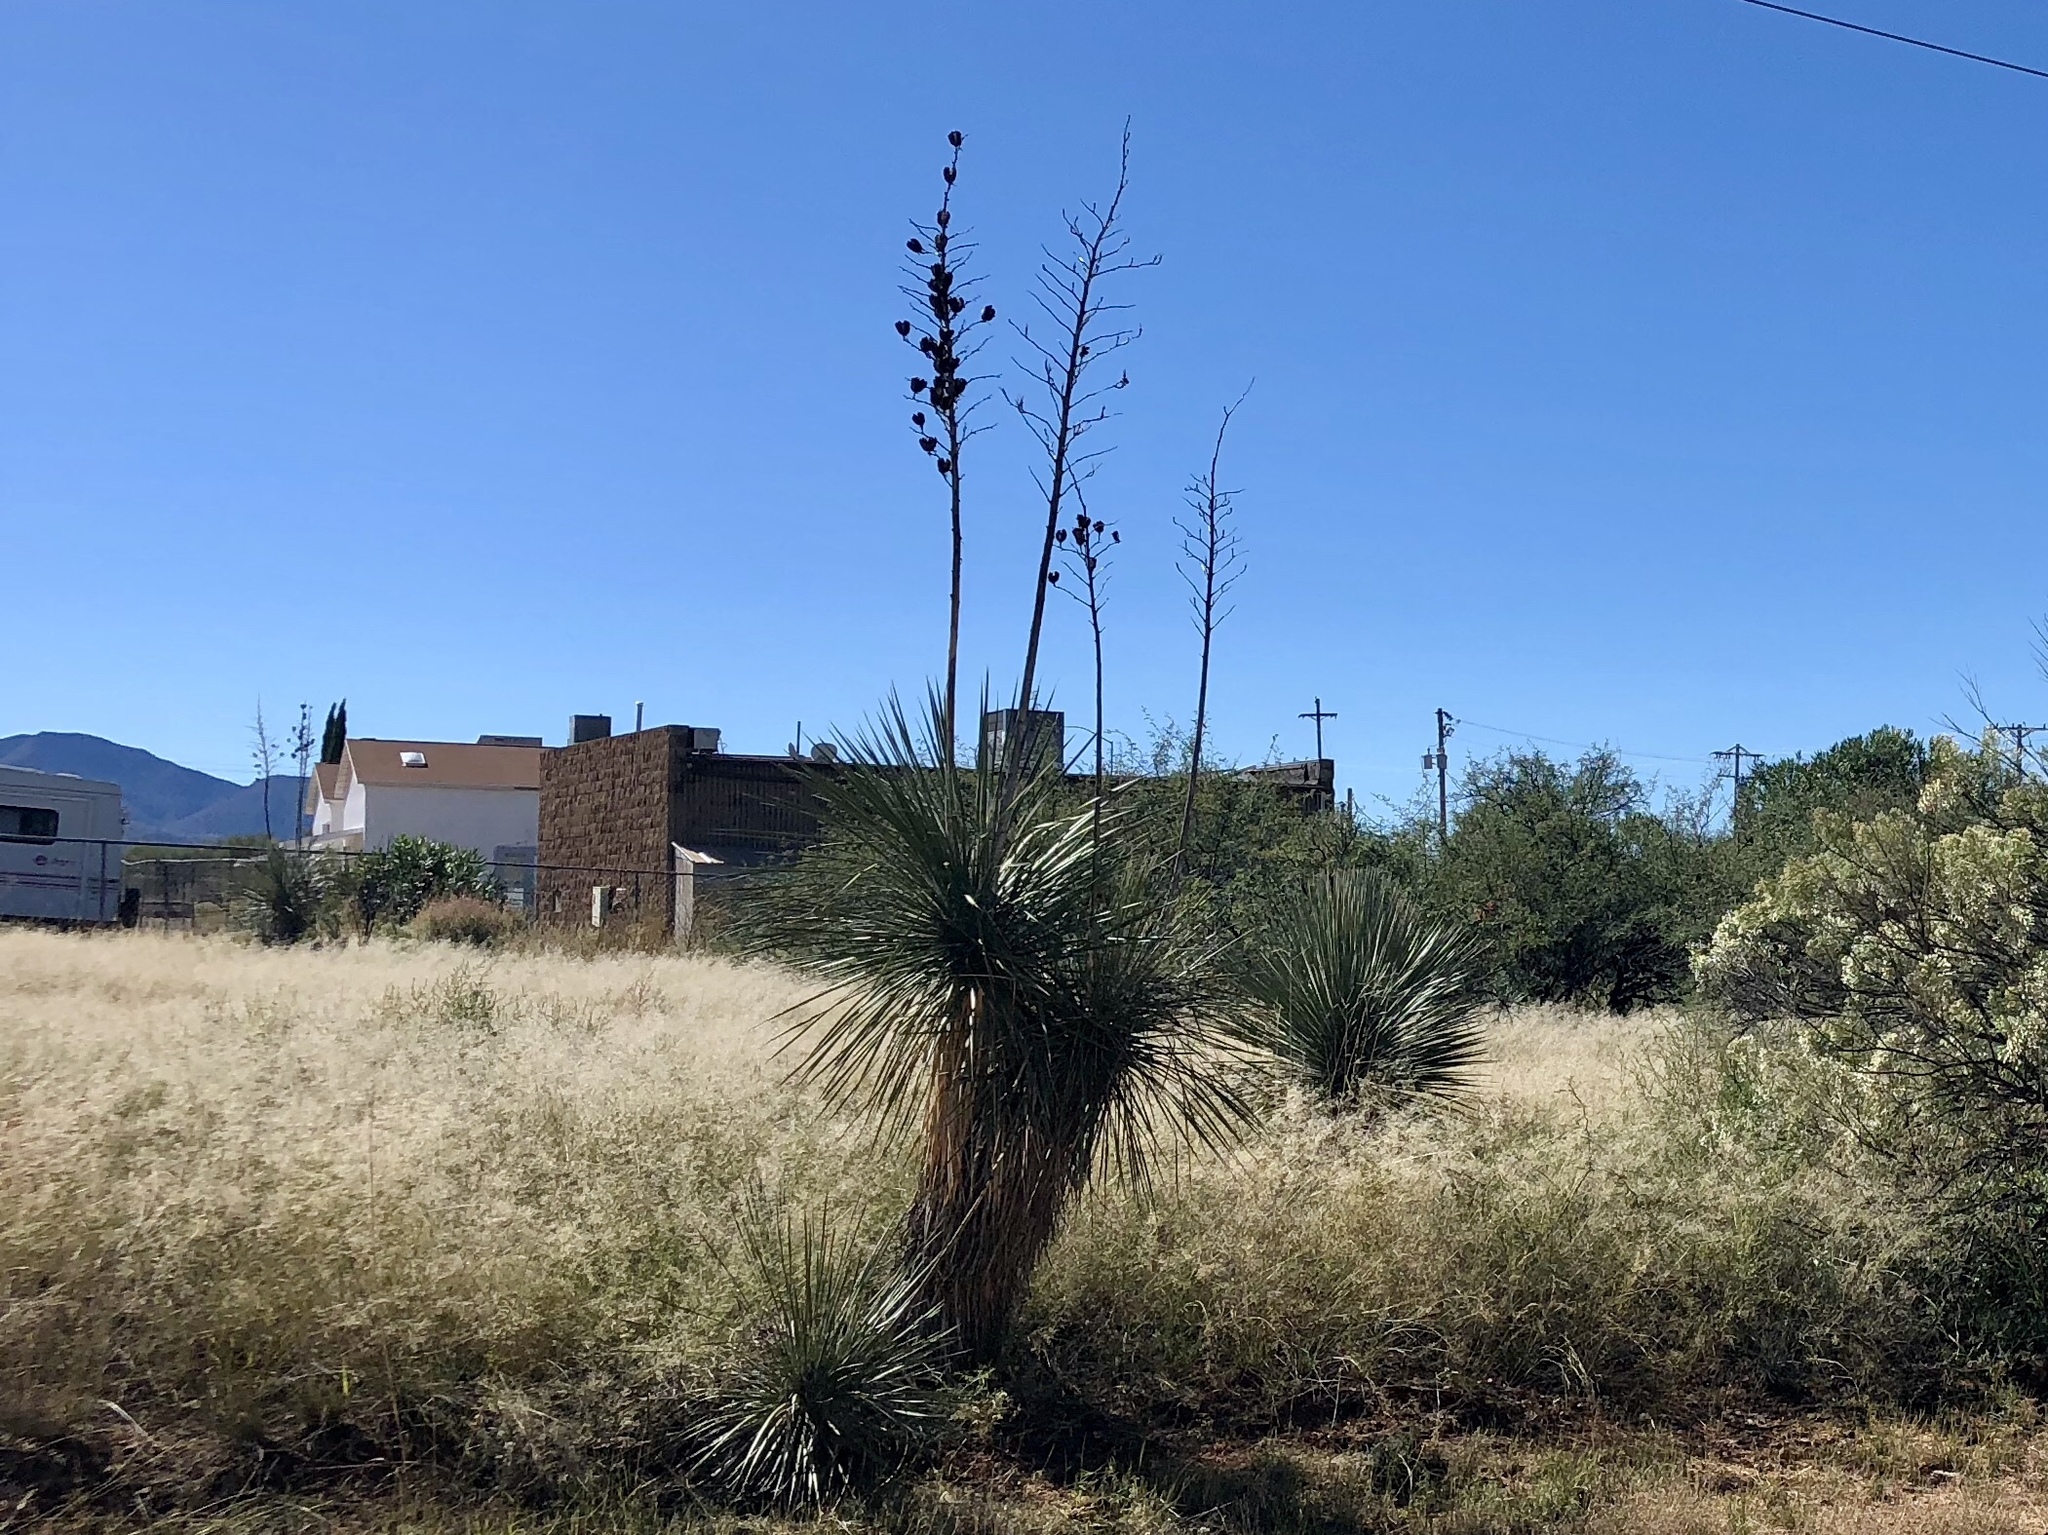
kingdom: Plantae
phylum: Tracheophyta
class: Liliopsida
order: Asparagales
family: Asparagaceae
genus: Yucca
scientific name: Yucca elata
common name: Palmella
